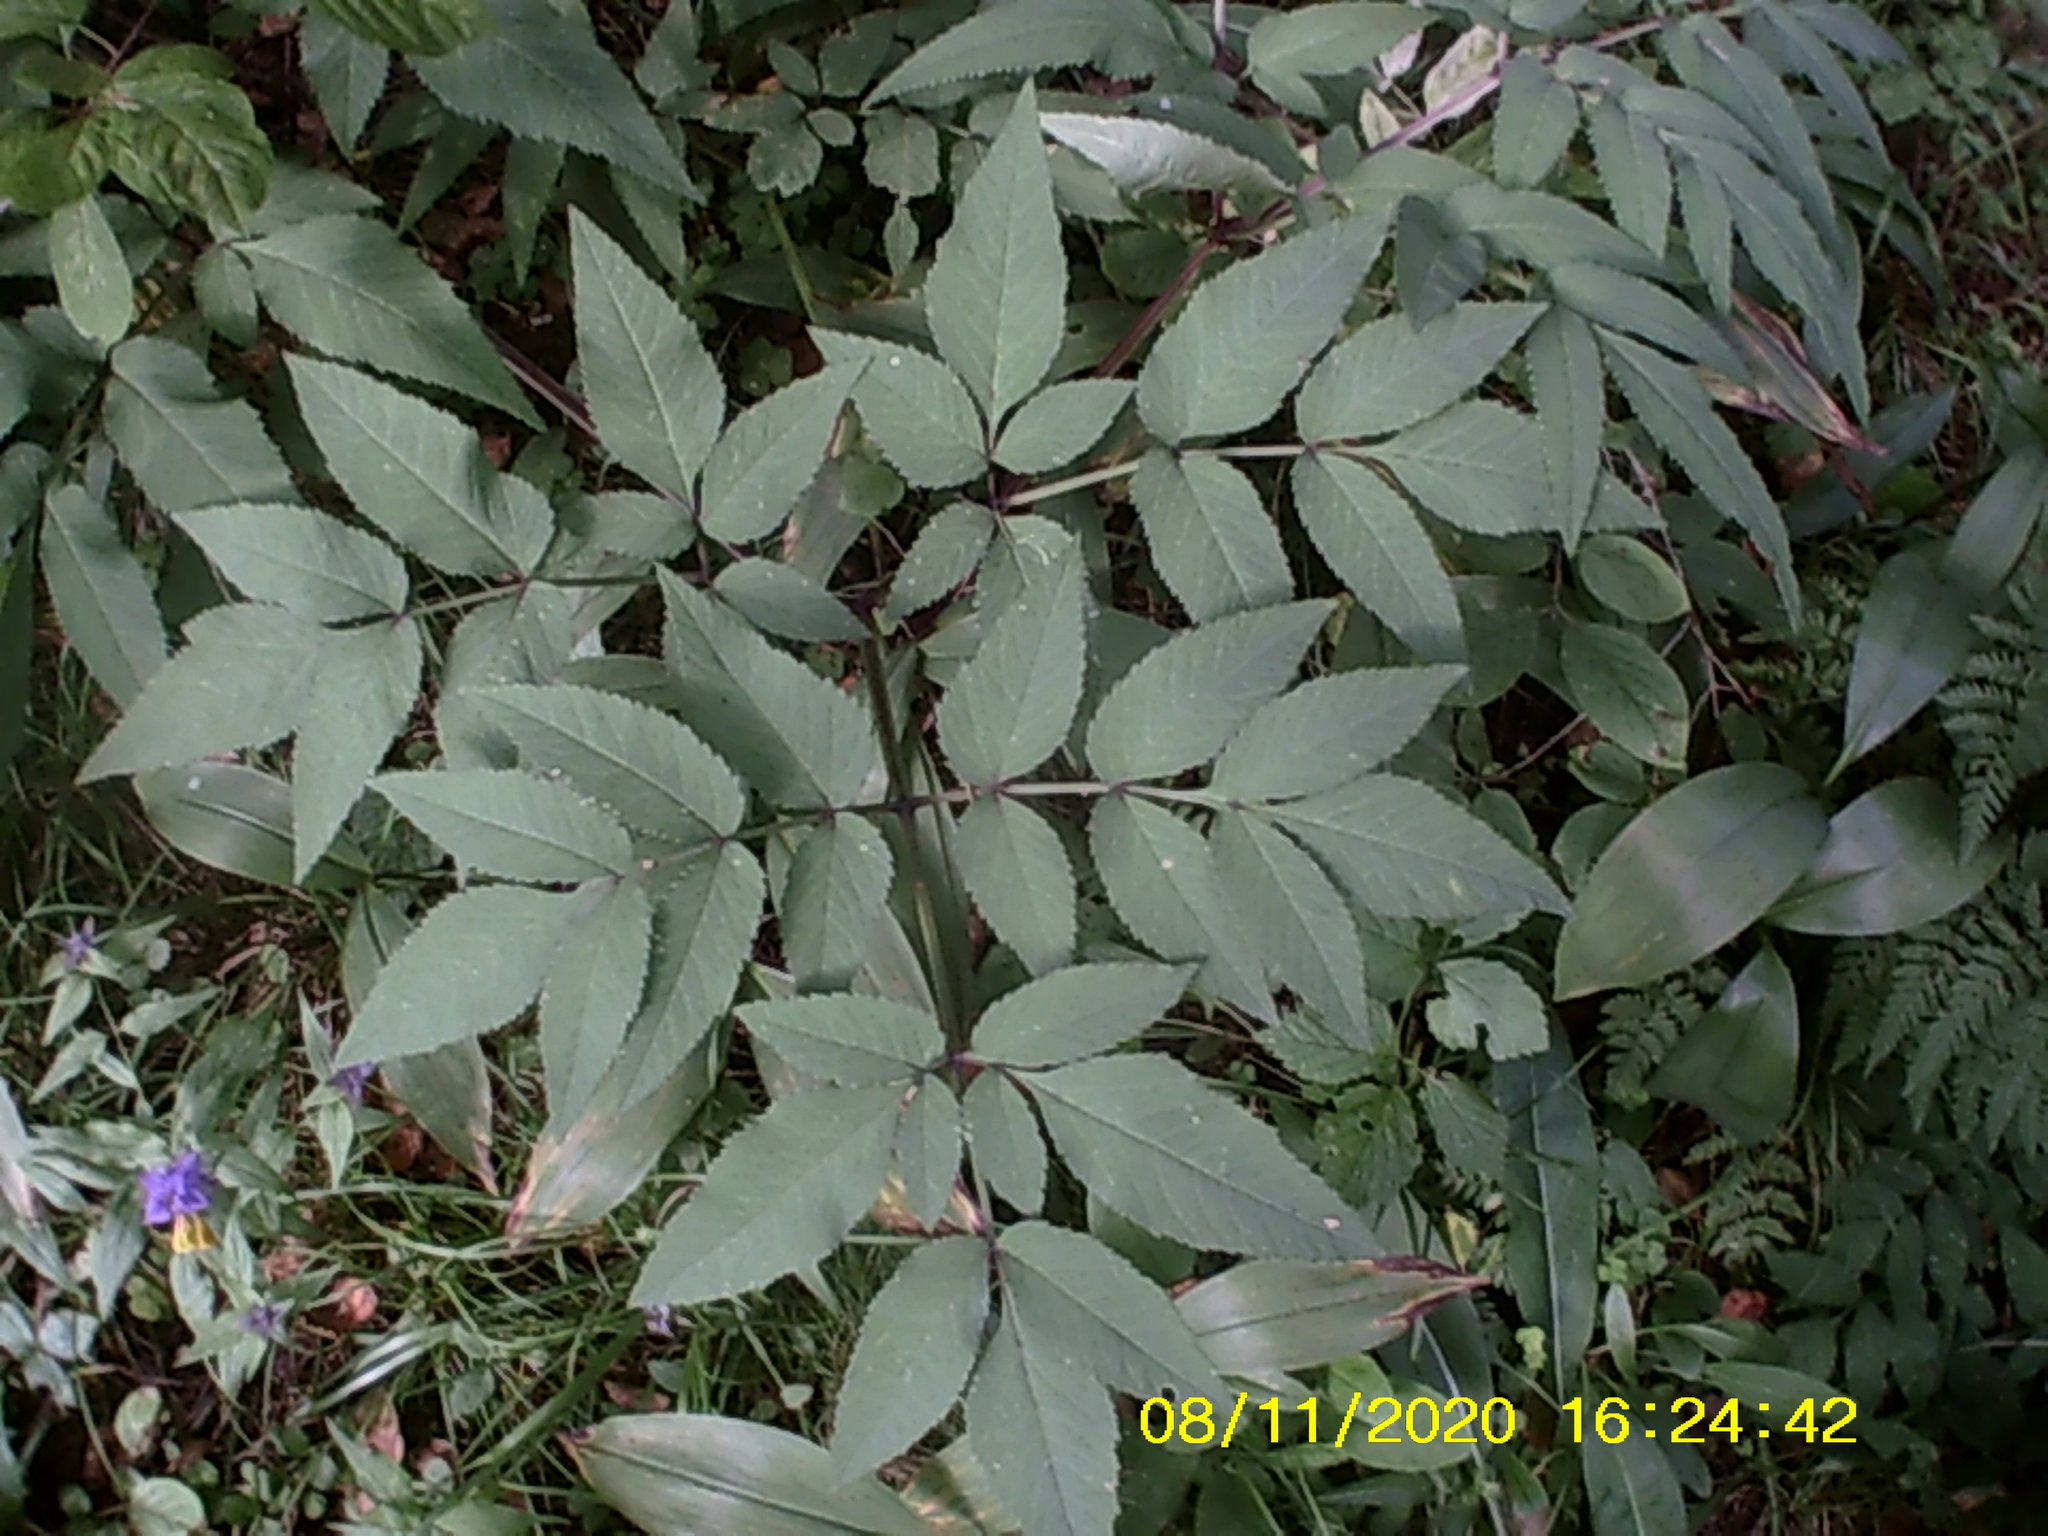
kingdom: Plantae
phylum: Tracheophyta
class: Magnoliopsida
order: Apiales
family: Apiaceae
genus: Angelica
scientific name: Angelica sylvestris
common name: Wild angelica
